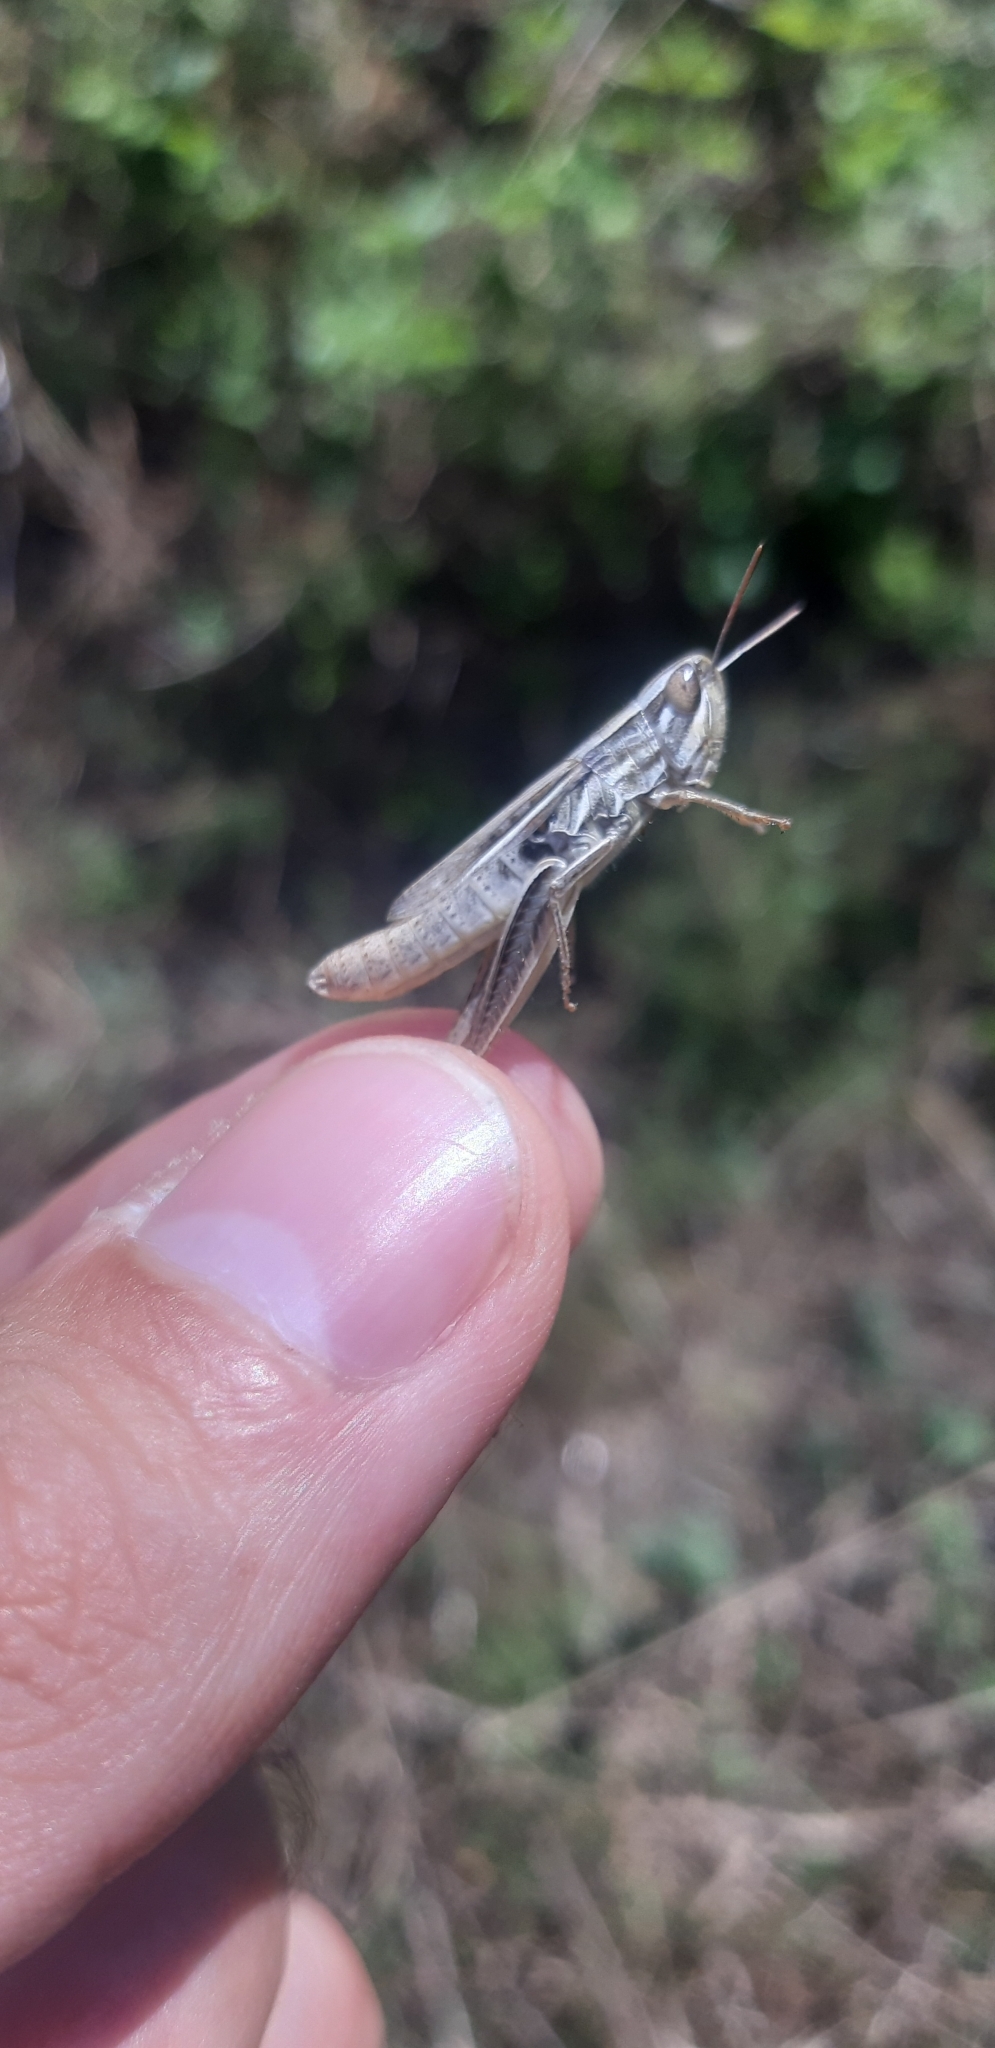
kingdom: Animalia
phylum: Arthropoda
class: Insecta
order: Orthoptera
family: Acrididae
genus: Euchorthippus
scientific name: Euchorthippus declivus
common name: Common straw grasshopper
